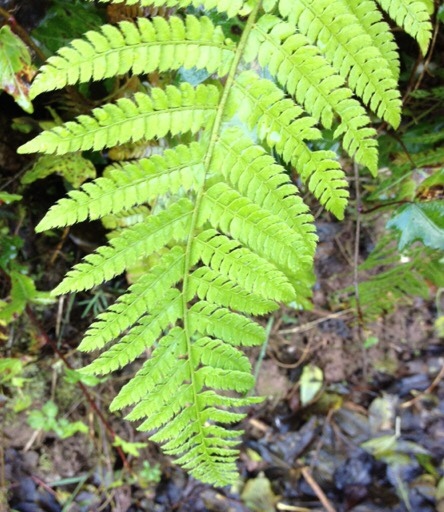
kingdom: Plantae
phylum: Tracheophyta
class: Polypodiopsida
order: Polypodiales
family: Dryopteridaceae
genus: Polystichum
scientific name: Polystichum setiferum
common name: Soft shield-fern
